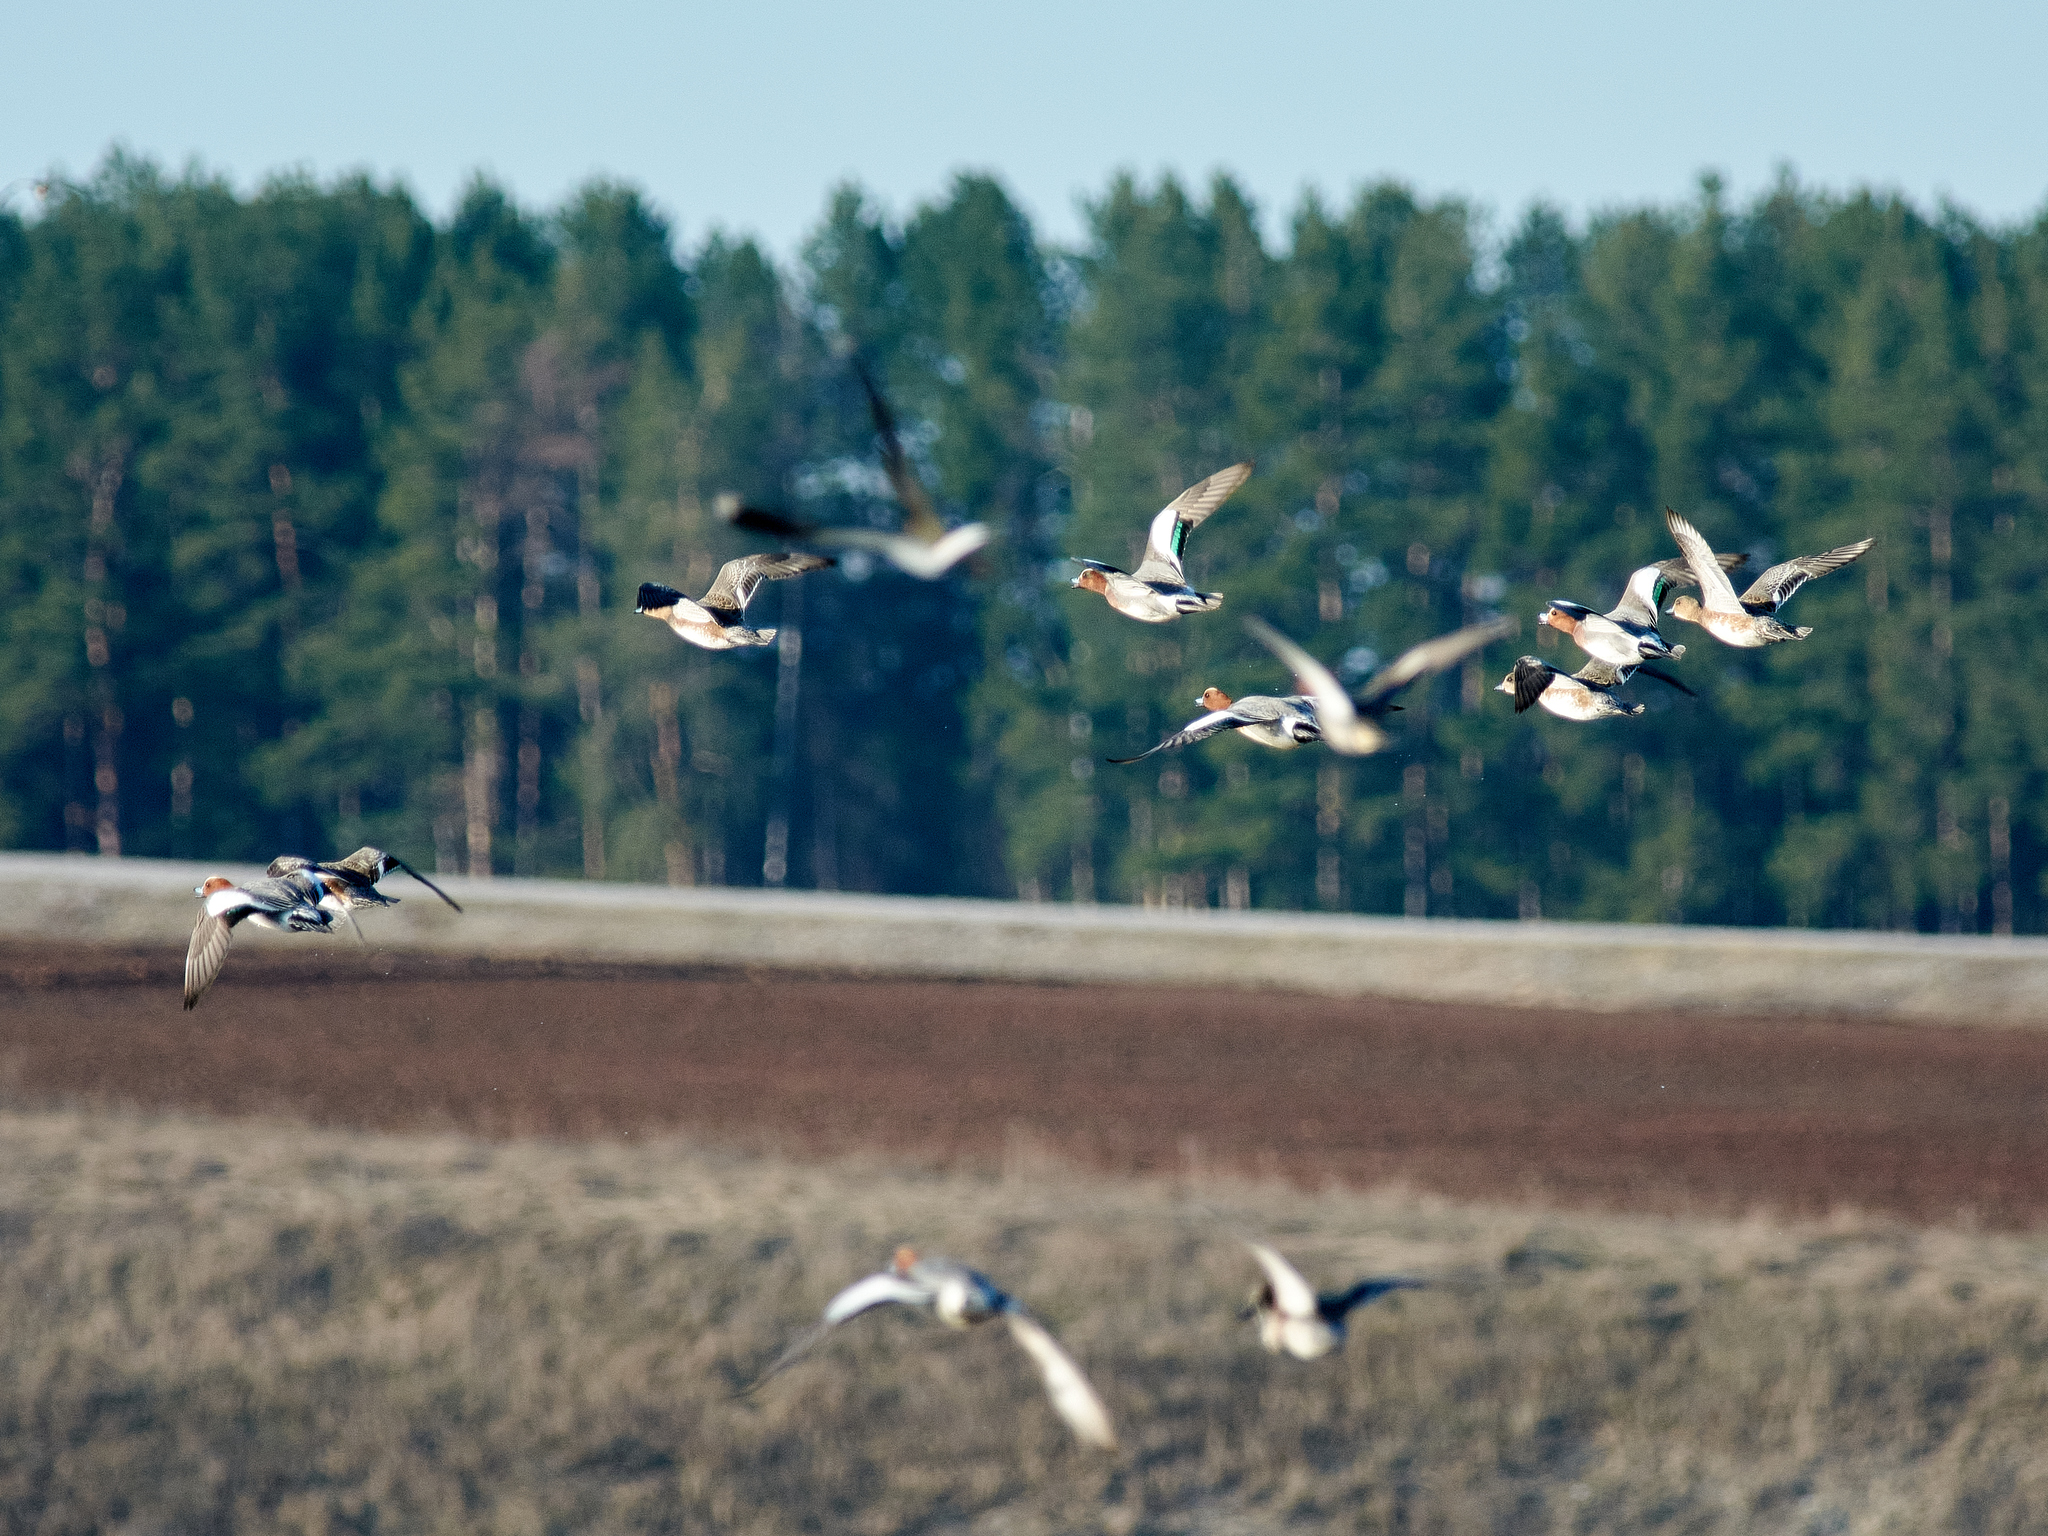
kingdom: Animalia
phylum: Chordata
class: Aves
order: Anseriformes
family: Anatidae
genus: Mareca
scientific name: Mareca penelope
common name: Eurasian wigeon
